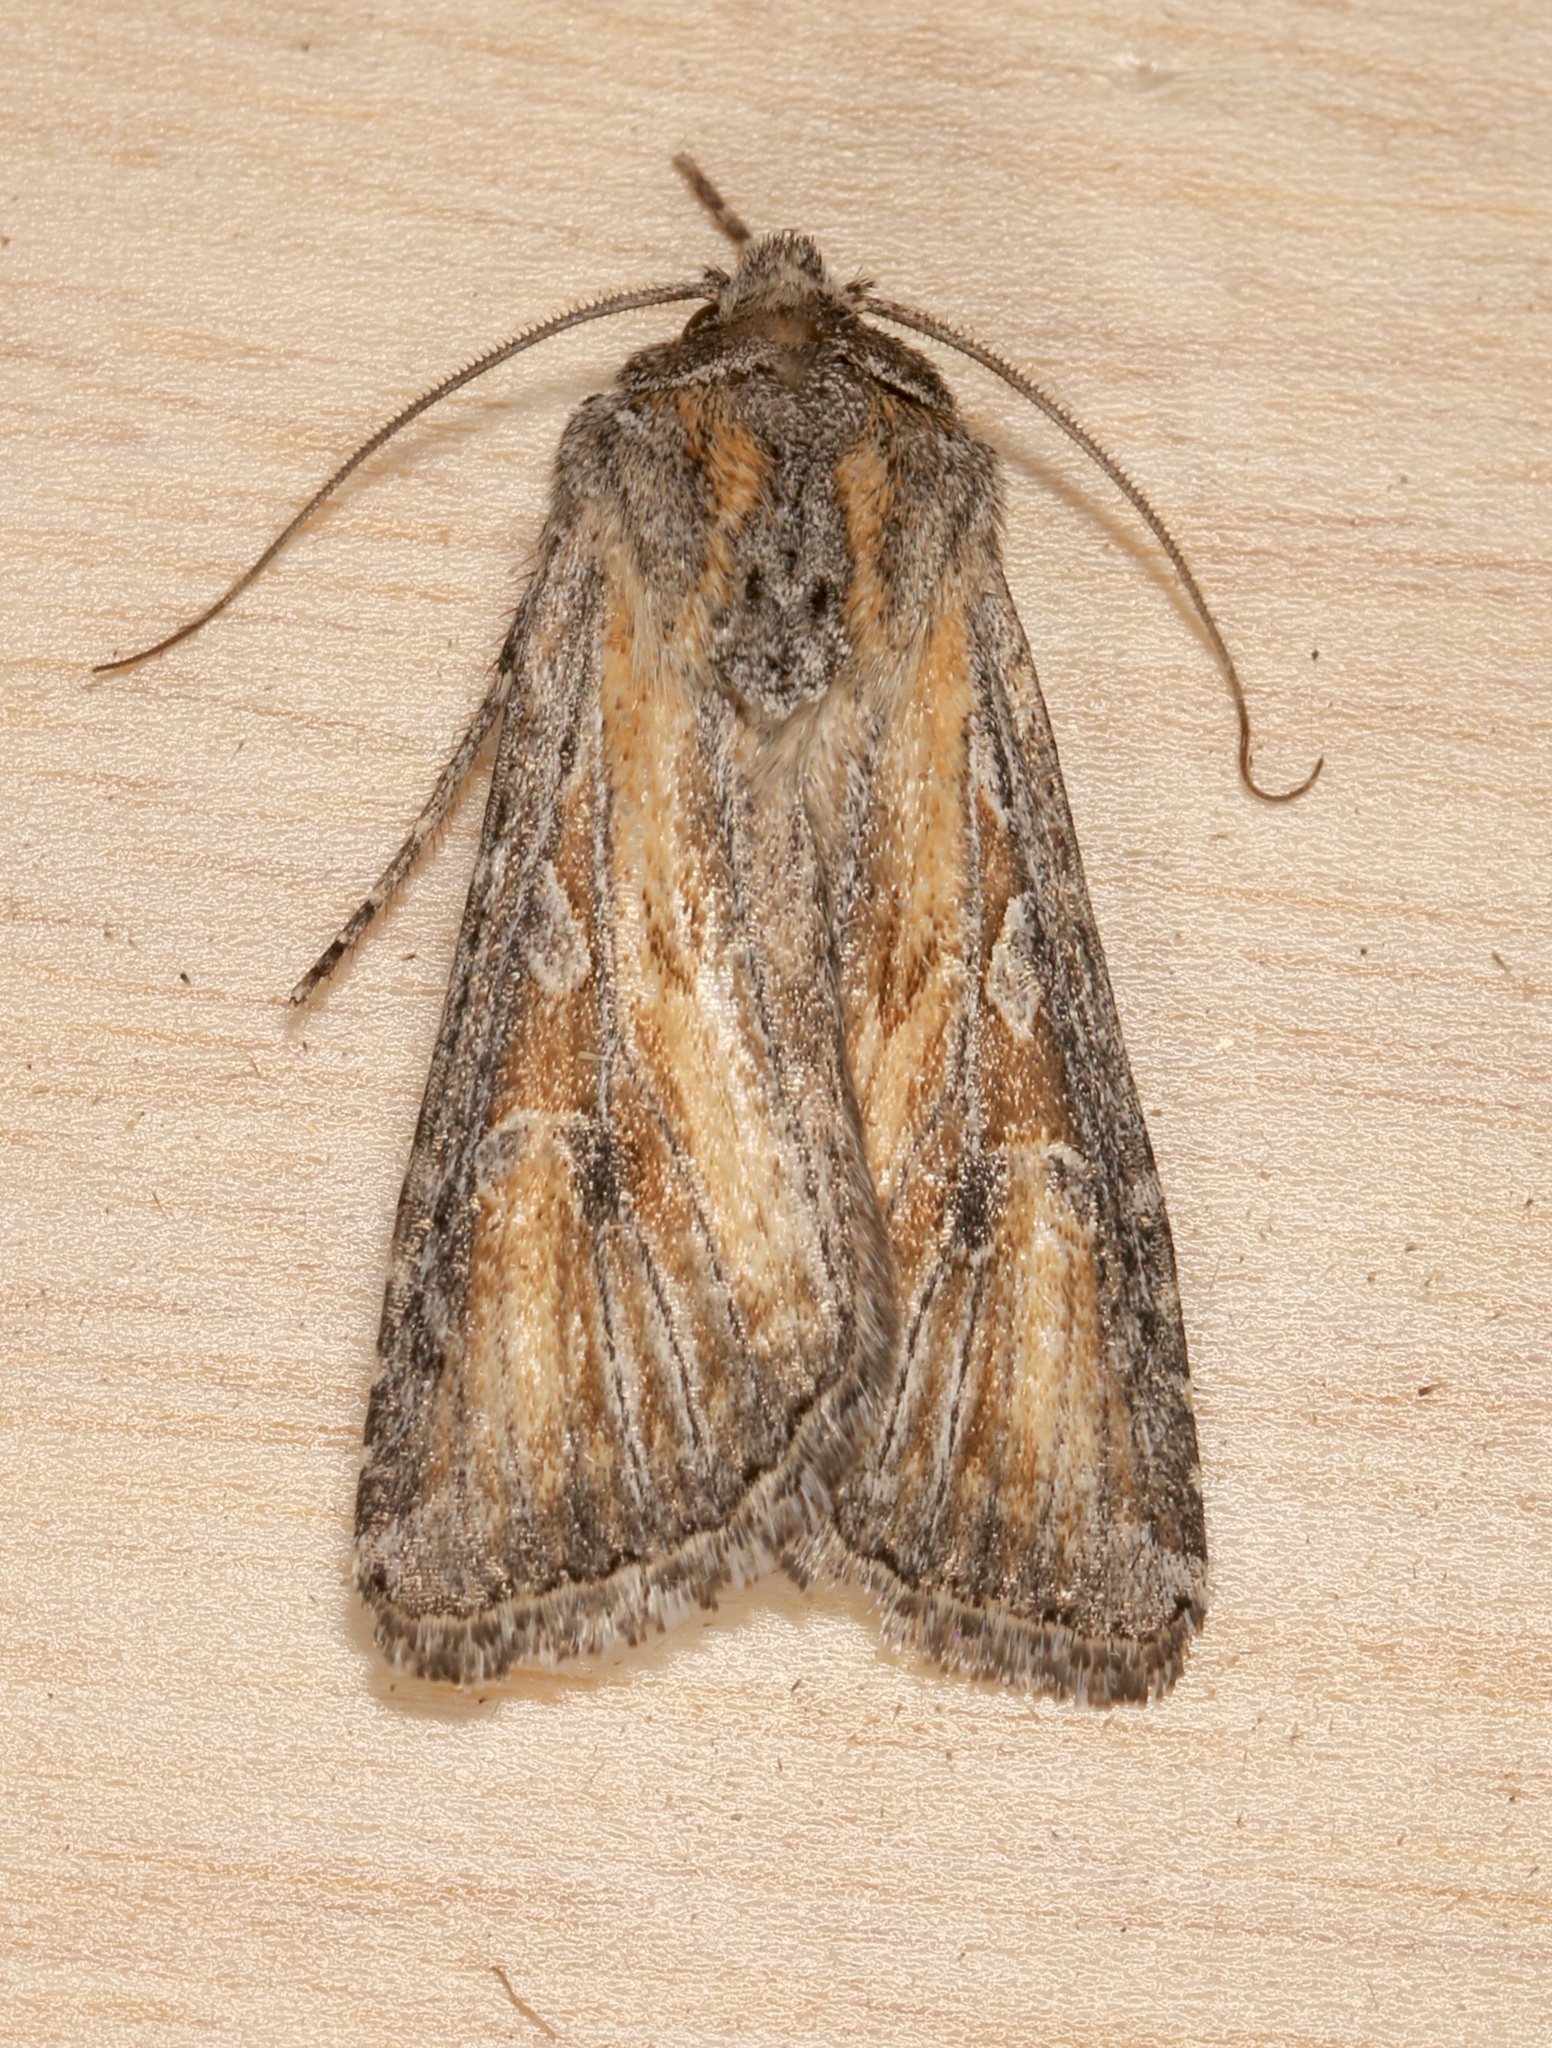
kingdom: Animalia
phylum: Arthropoda
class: Insecta
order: Lepidoptera
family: Noctuidae
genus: Euxoa
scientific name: Euxoa pluralis
